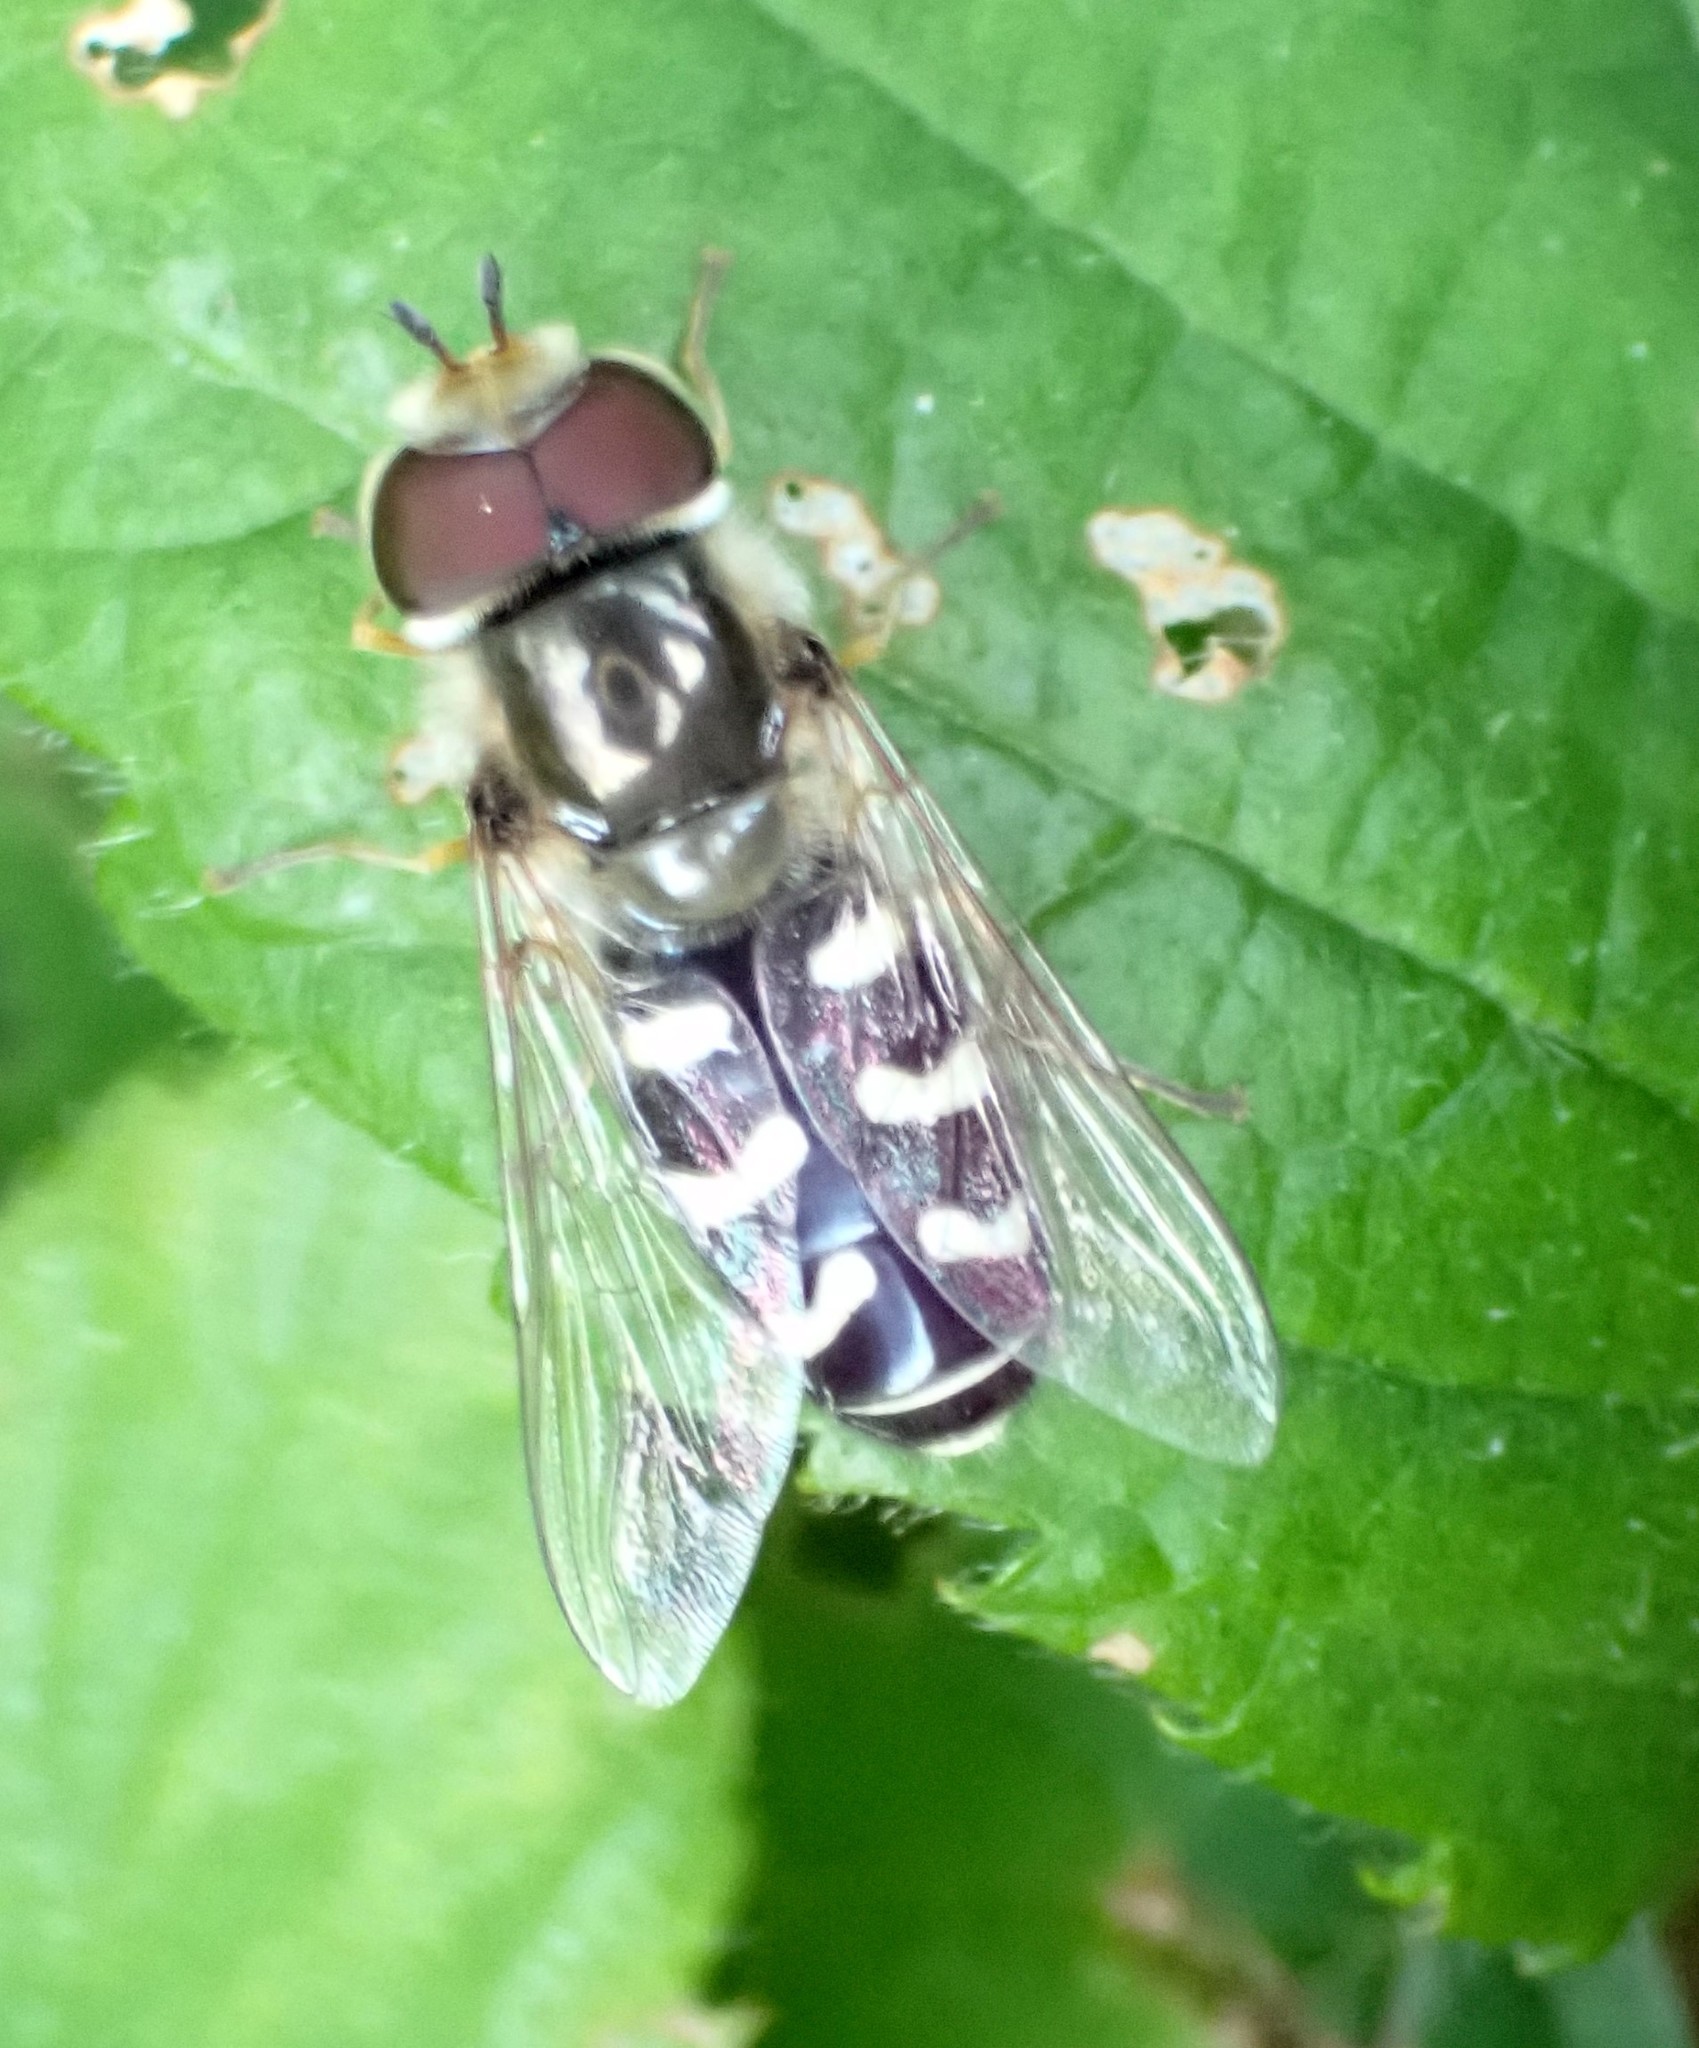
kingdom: Animalia
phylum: Arthropoda
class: Insecta
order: Diptera
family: Syrphidae
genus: Scaeva
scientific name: Scaeva pyrastri
